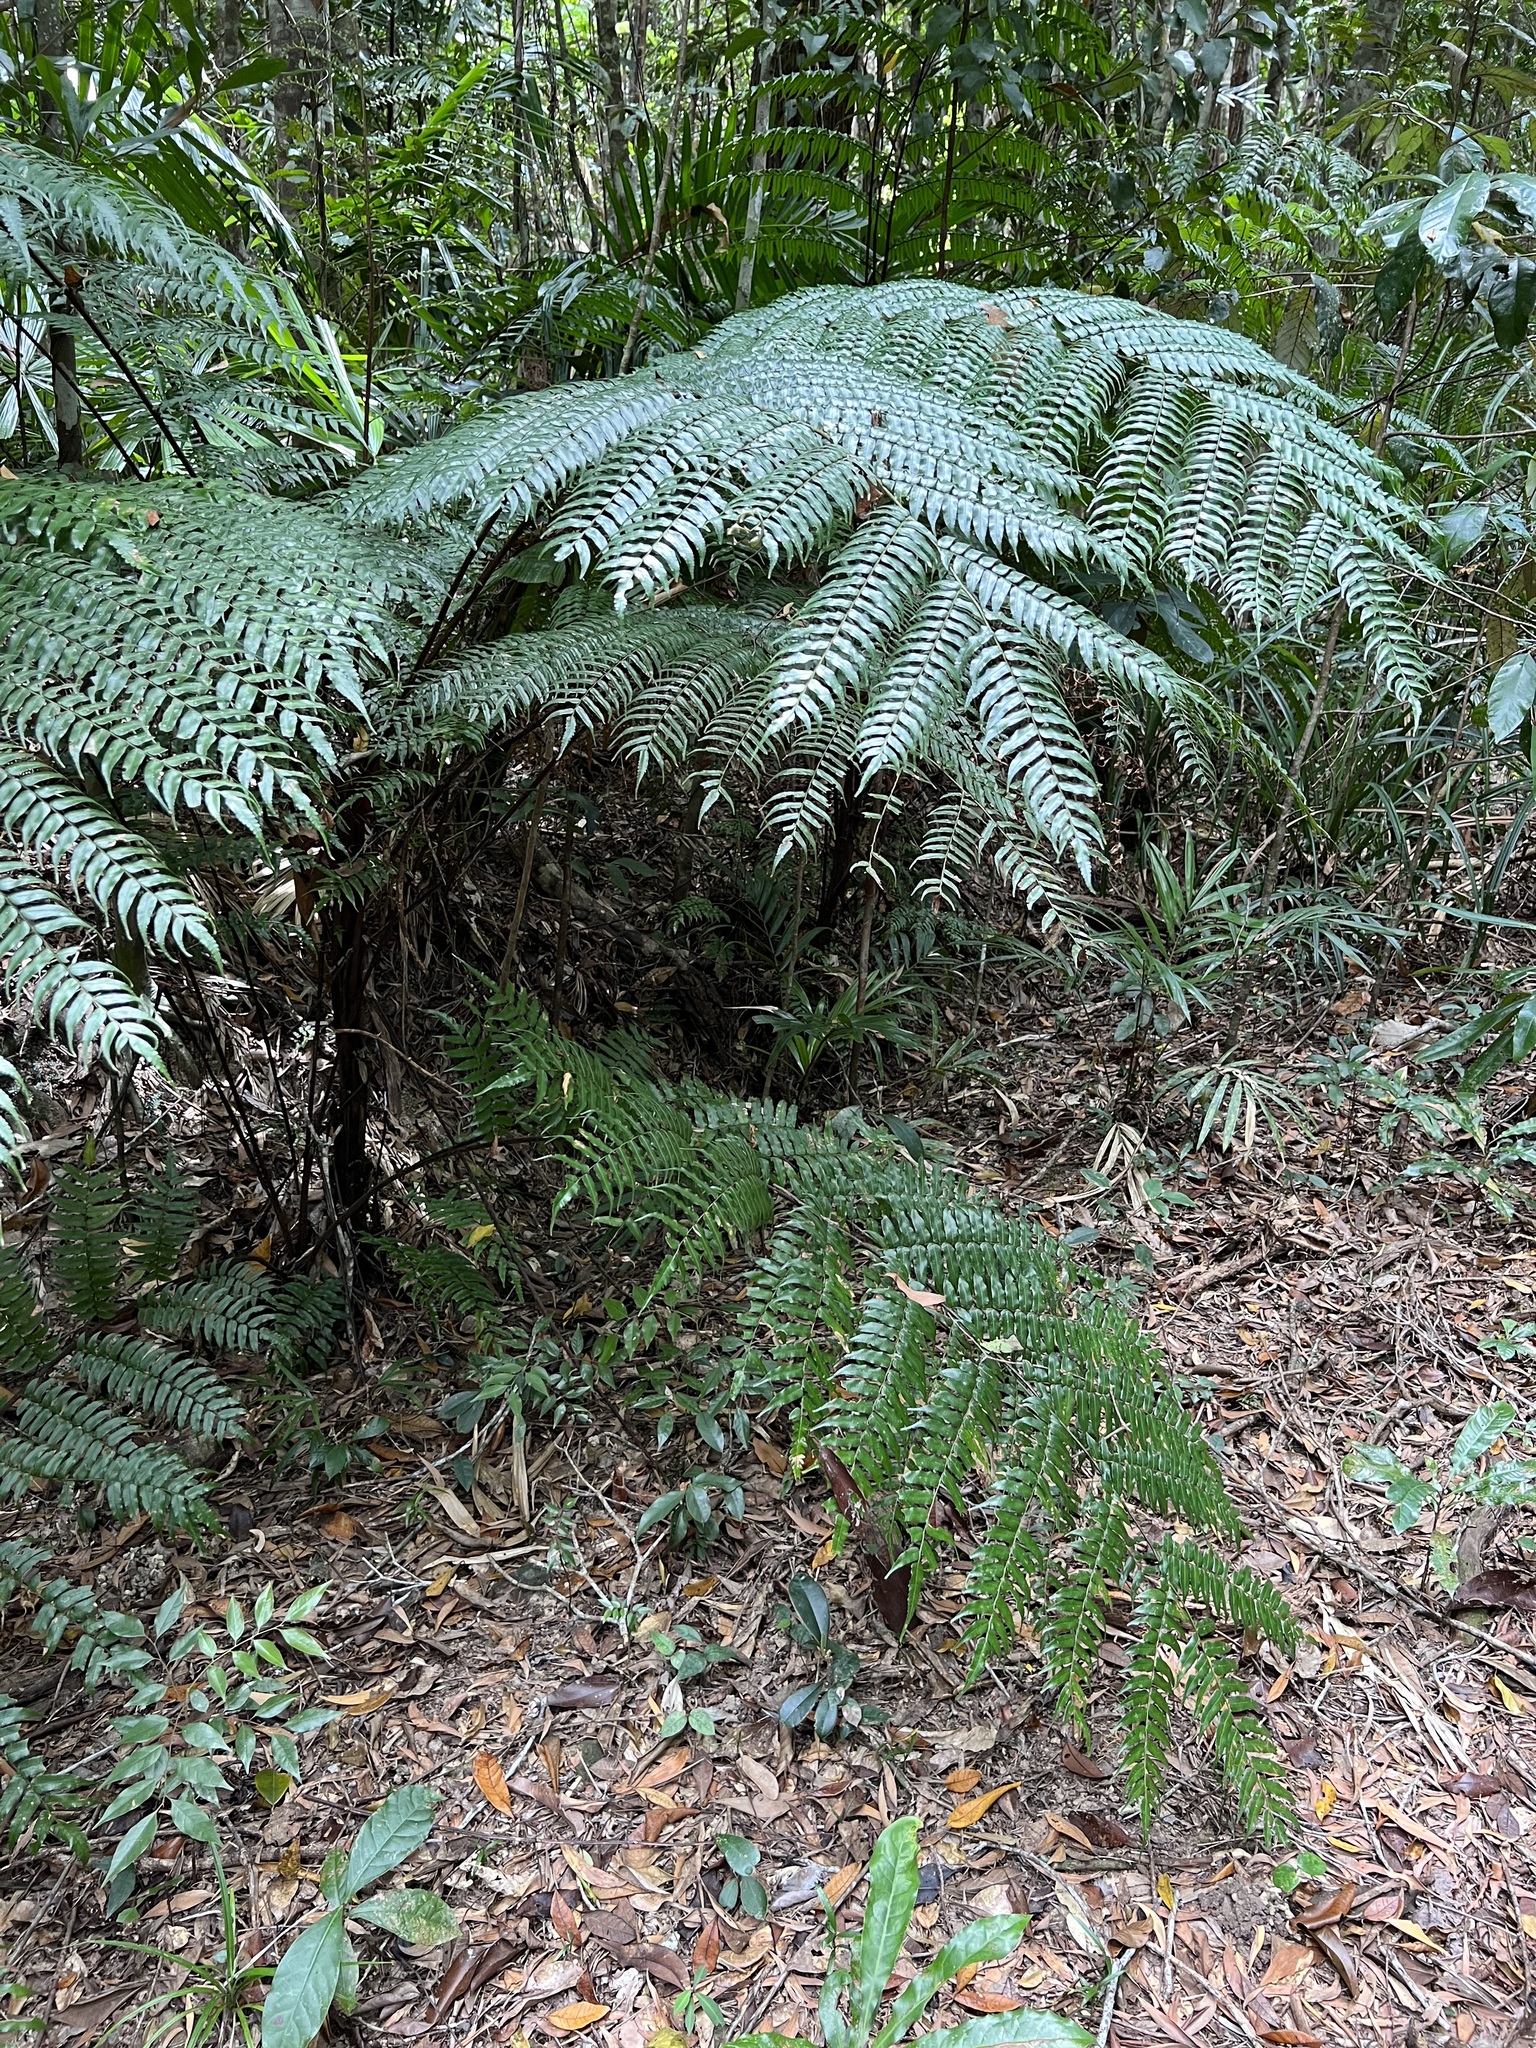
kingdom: Plantae
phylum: Tracheophyta
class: Polypodiopsida
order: Cyatheales
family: Cyatheaceae
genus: Gymnosphaera
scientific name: Gymnosphaera rebeccae
